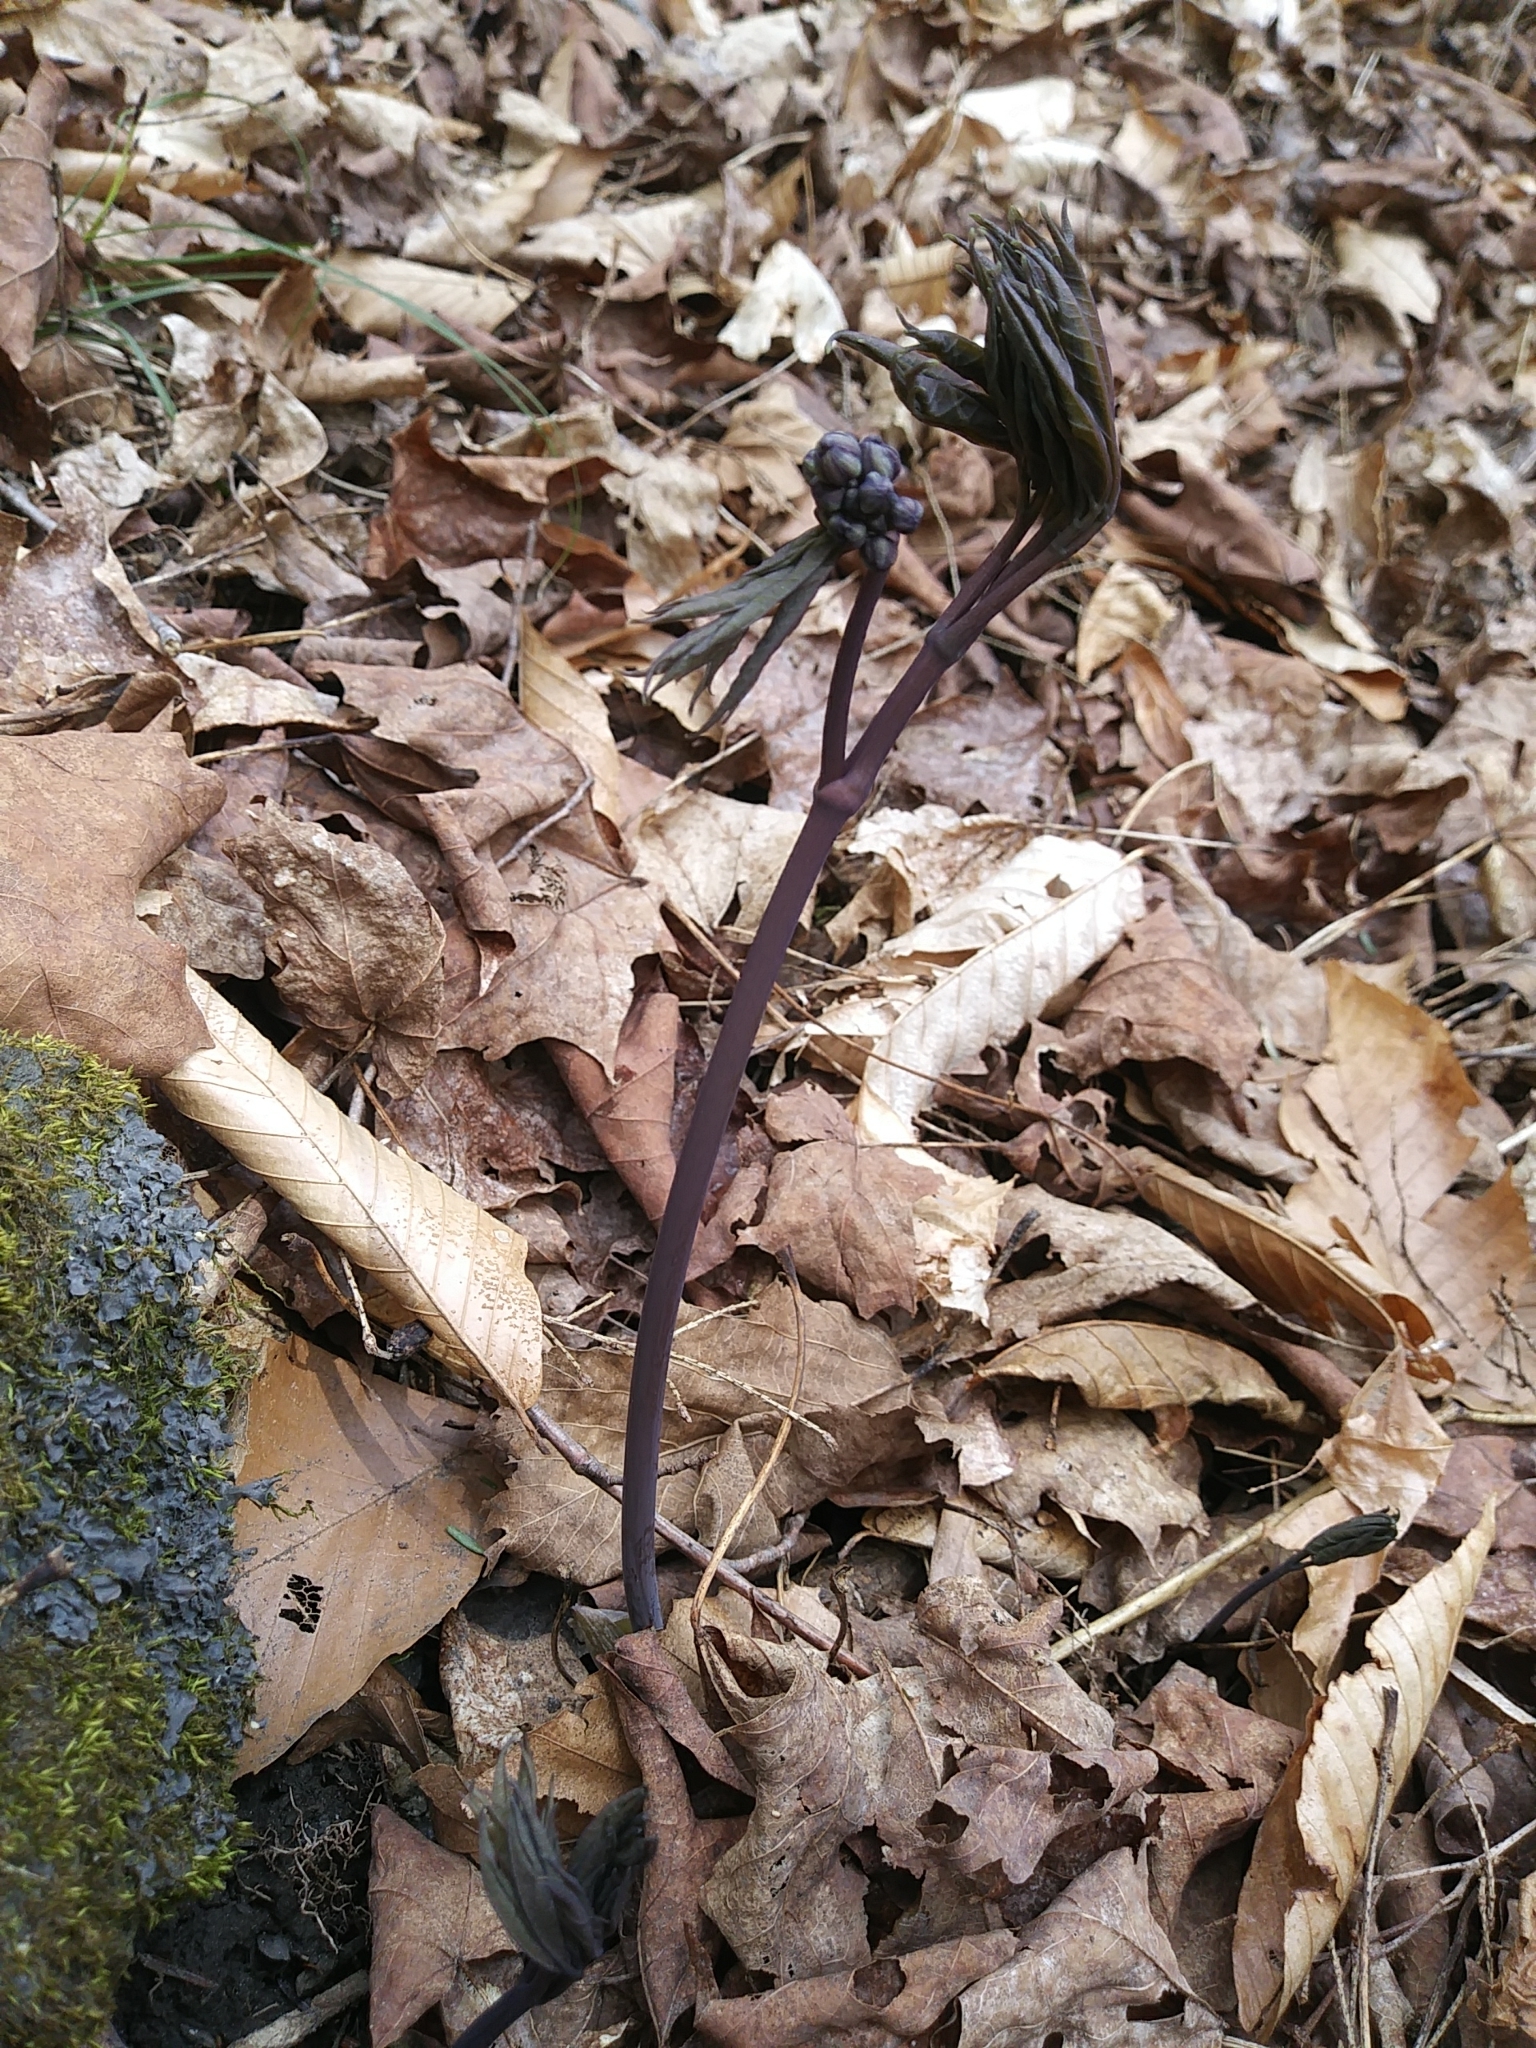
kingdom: Plantae
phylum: Tracheophyta
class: Magnoliopsida
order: Ranunculales
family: Berberidaceae
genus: Caulophyllum
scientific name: Caulophyllum giganteum
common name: Blue cohosh
